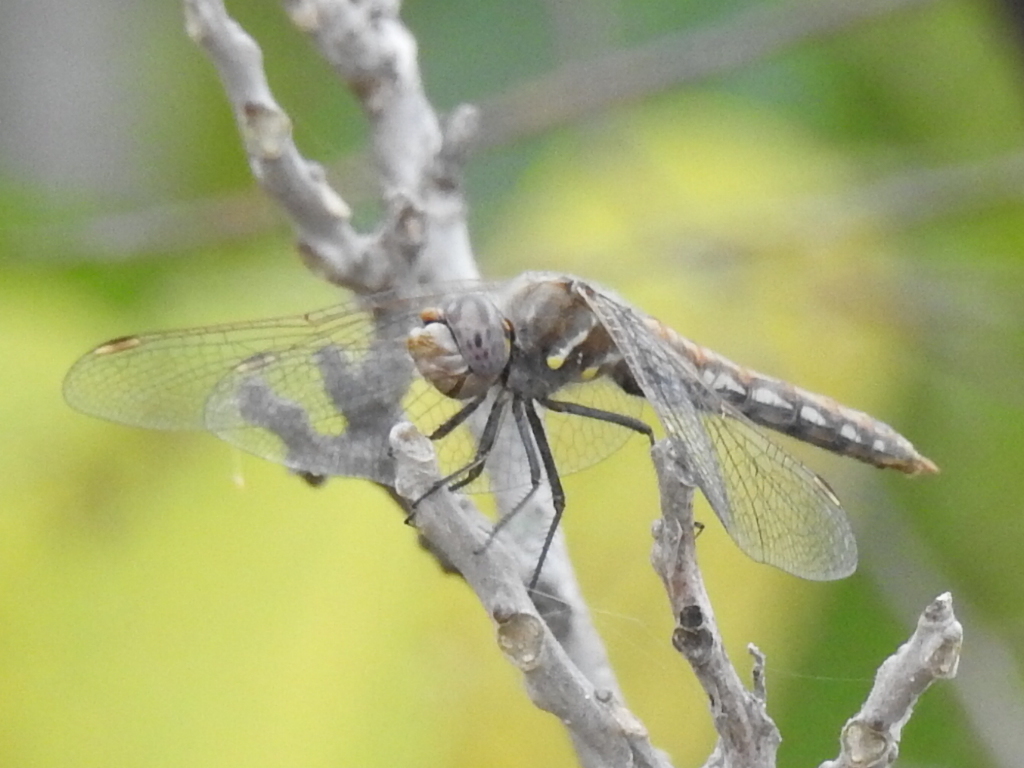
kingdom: Animalia
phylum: Arthropoda
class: Insecta
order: Odonata
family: Libellulidae
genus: Sympetrum
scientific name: Sympetrum corruptum
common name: Variegated meadowhawk
